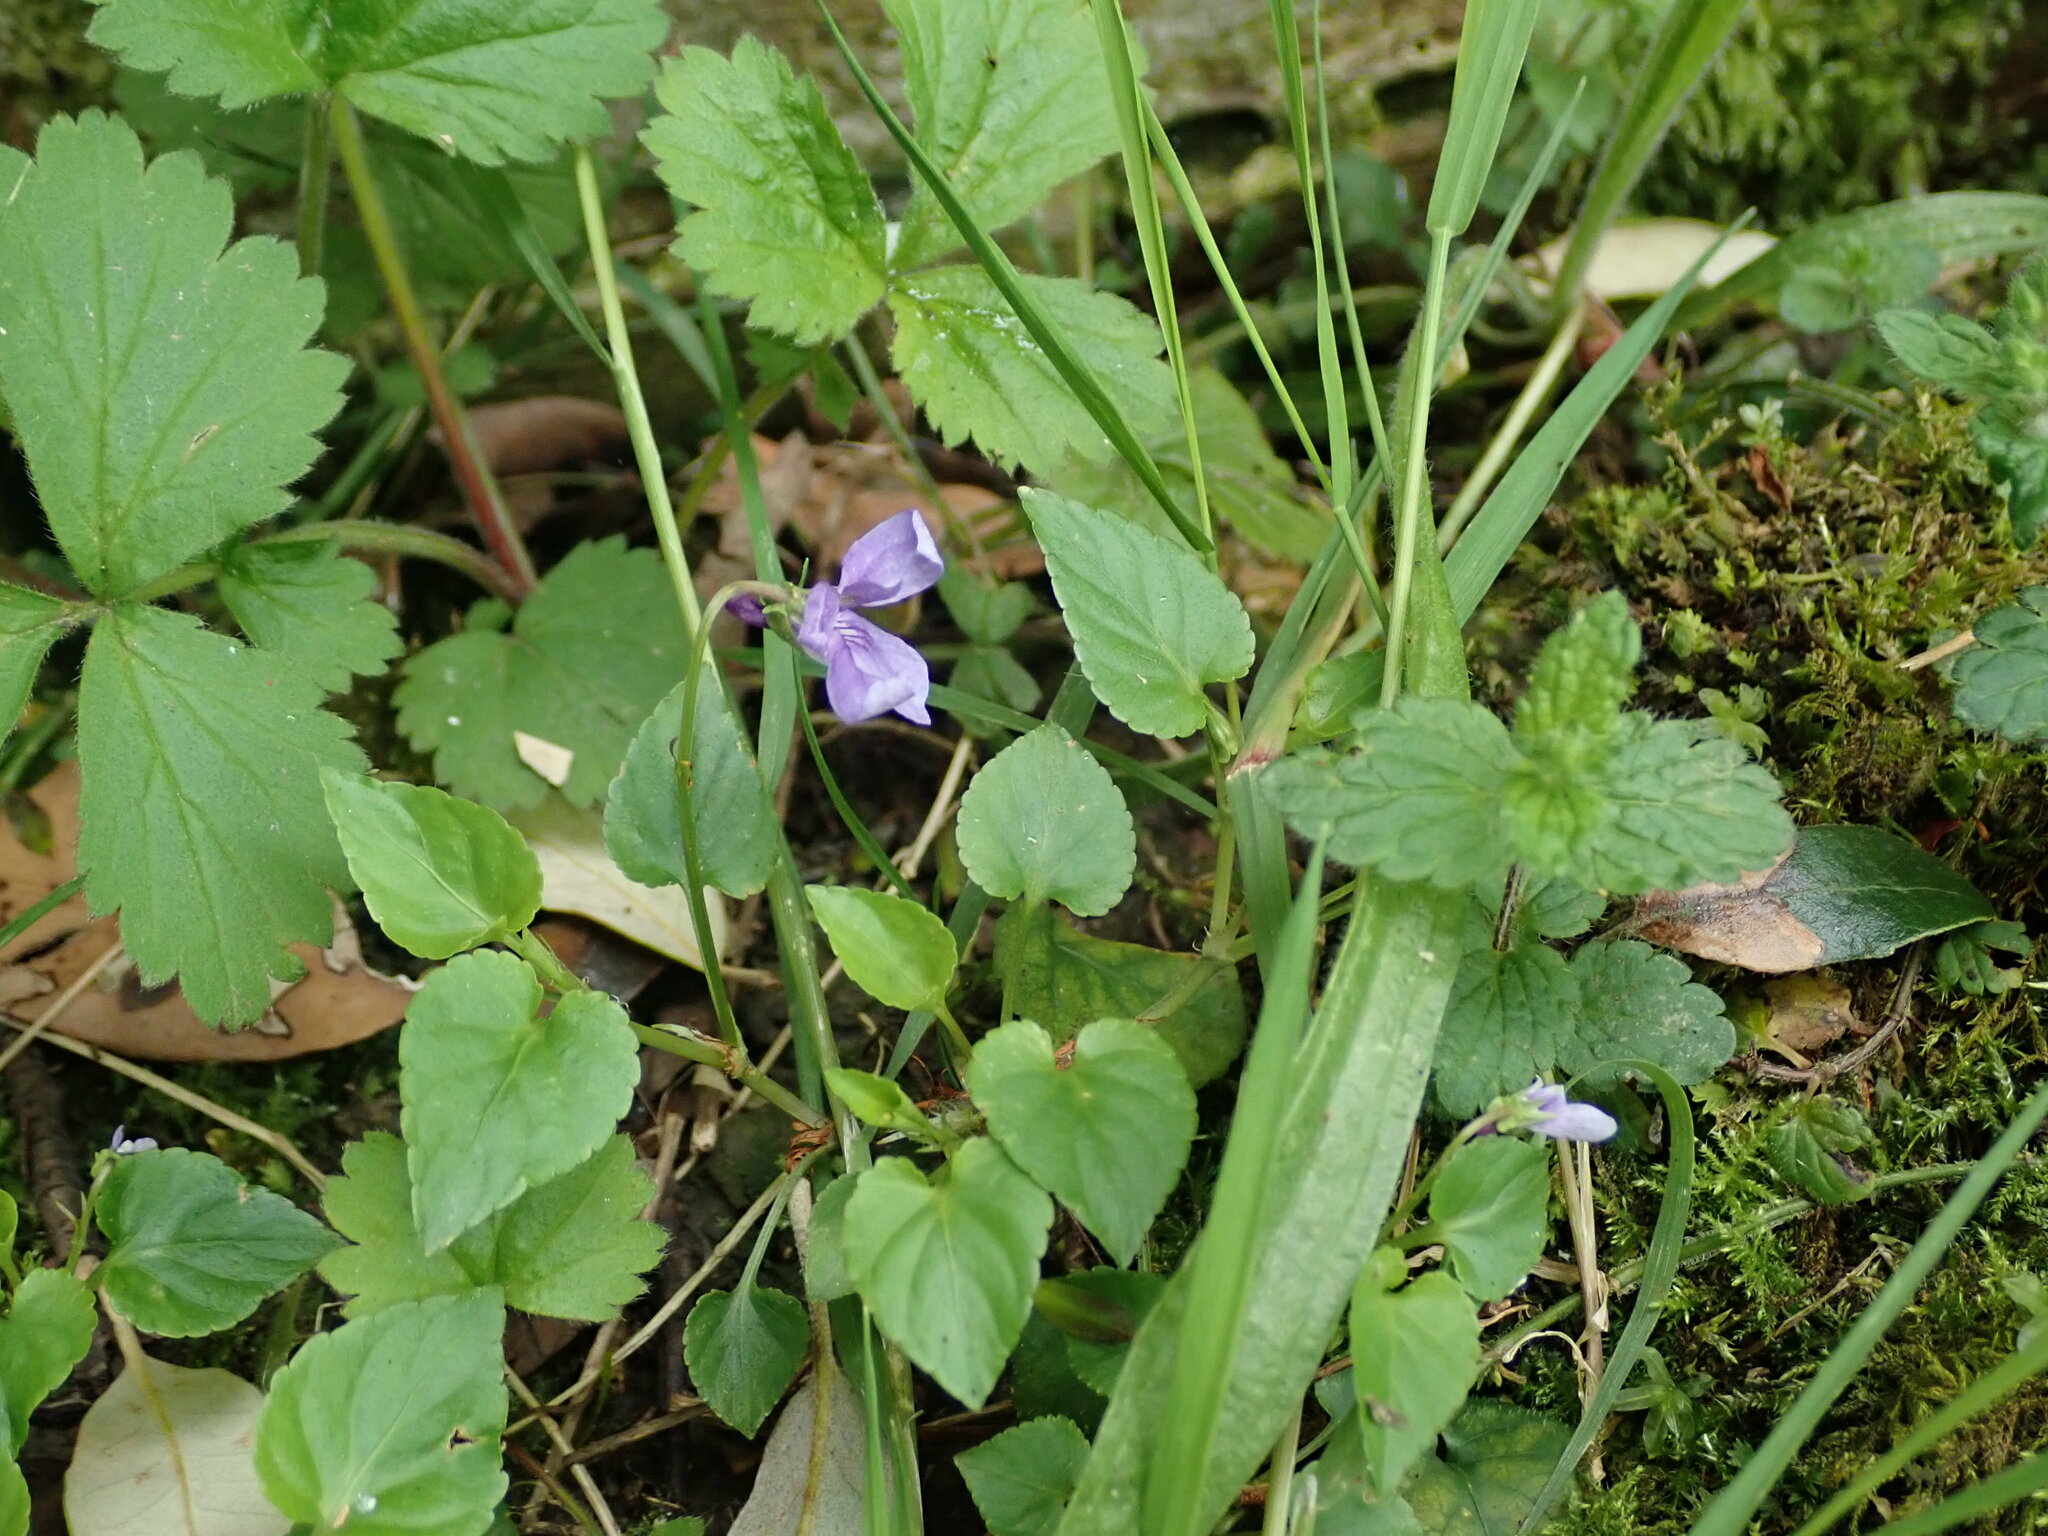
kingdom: Plantae
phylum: Tracheophyta
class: Magnoliopsida
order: Malpighiales
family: Violaceae
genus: Viola
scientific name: Viola reichenbachiana
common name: Early dog-violet
